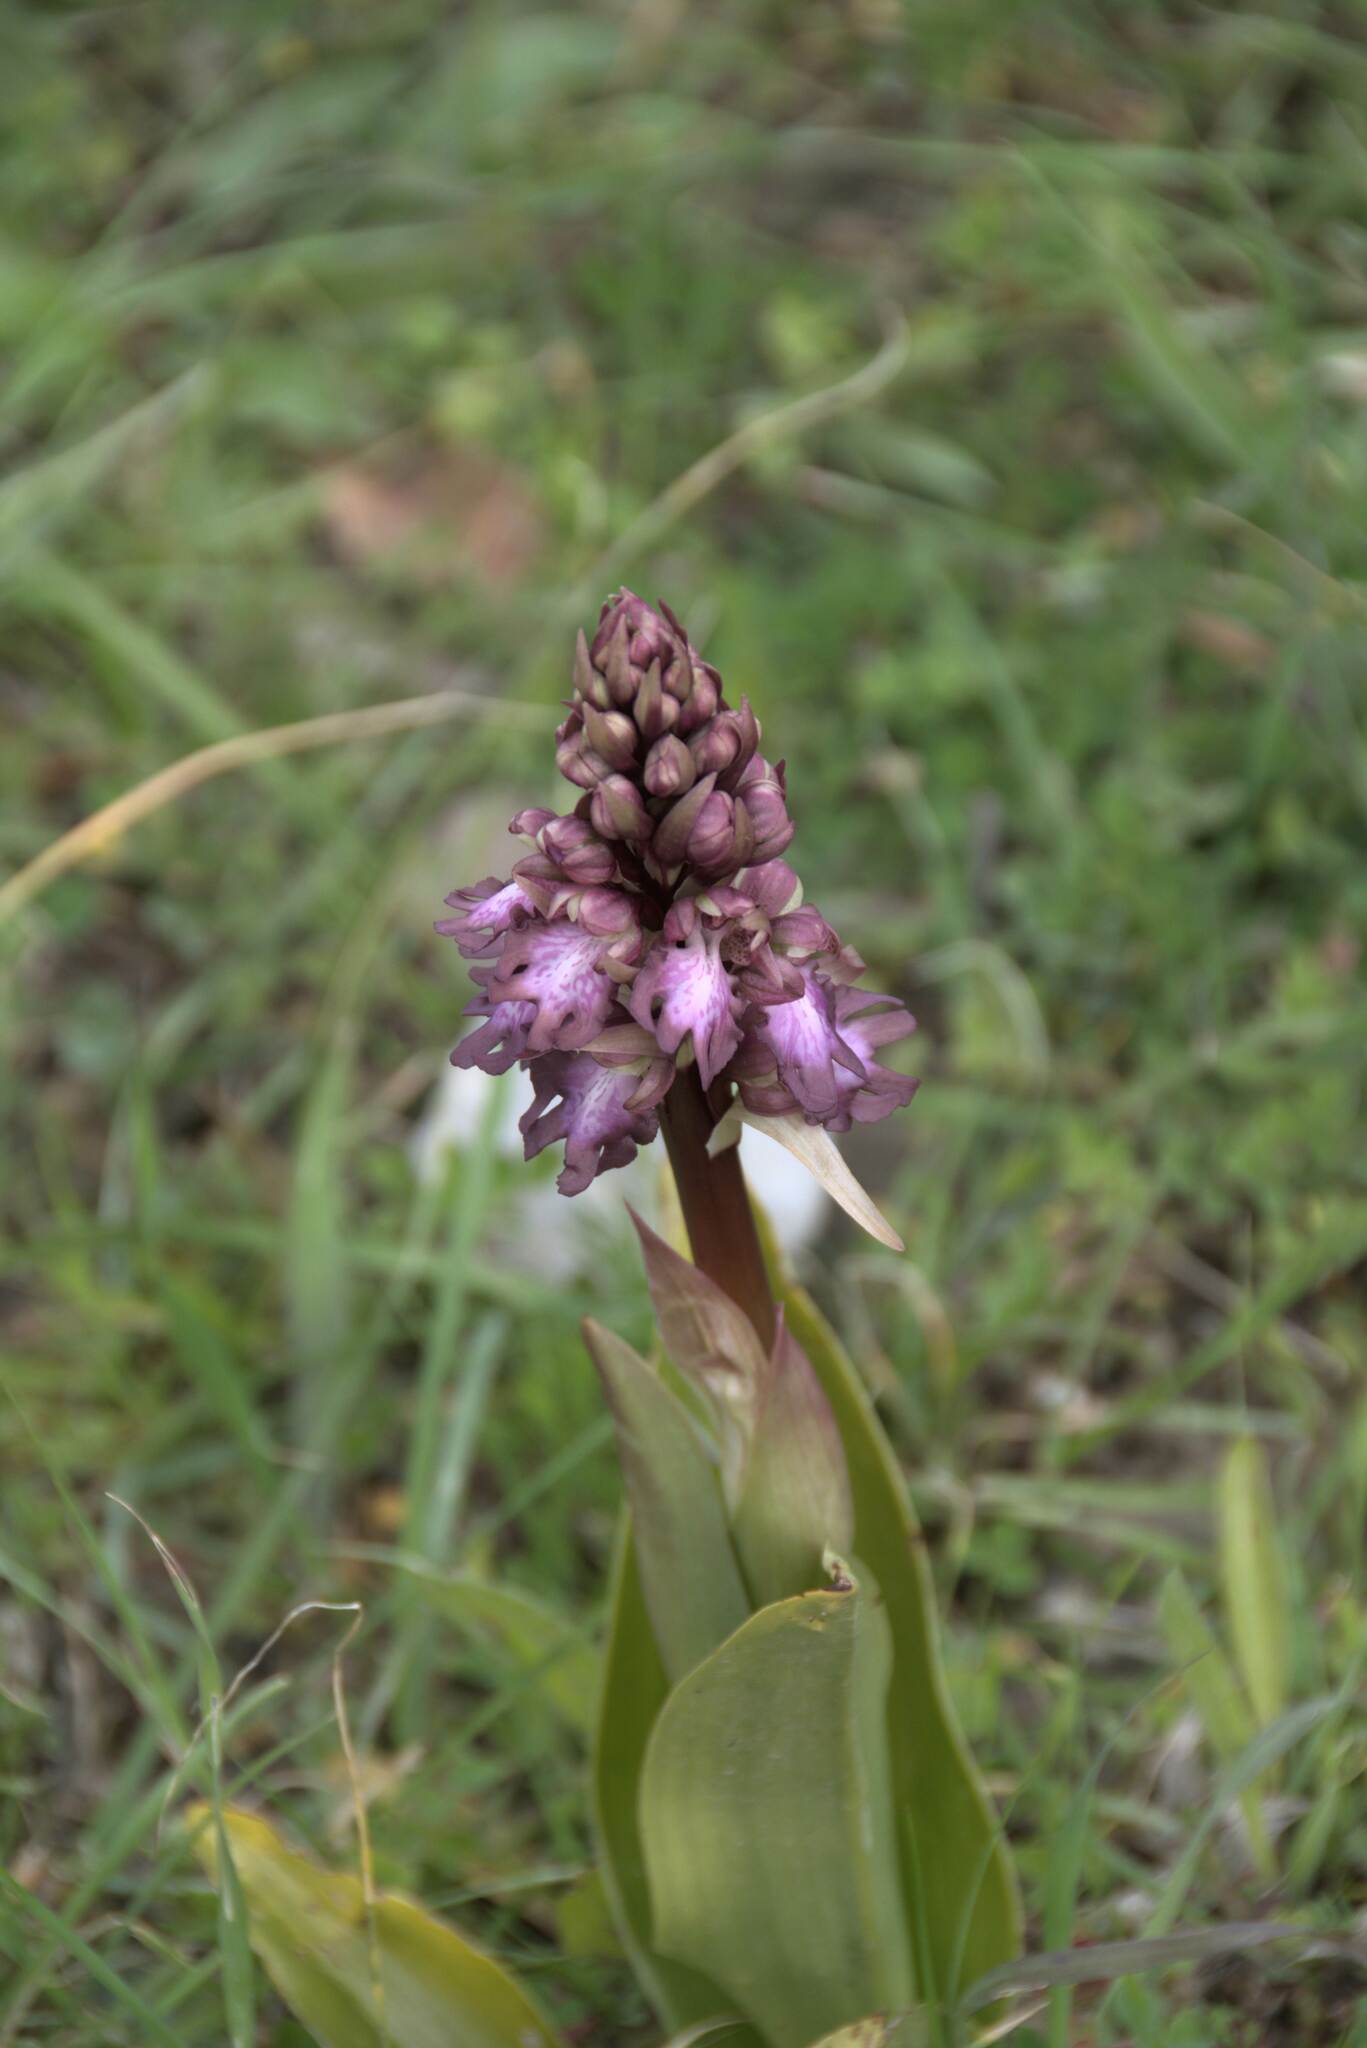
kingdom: Plantae
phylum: Tracheophyta
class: Liliopsida
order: Asparagales
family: Orchidaceae
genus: Himantoglossum
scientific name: Himantoglossum robertianum
